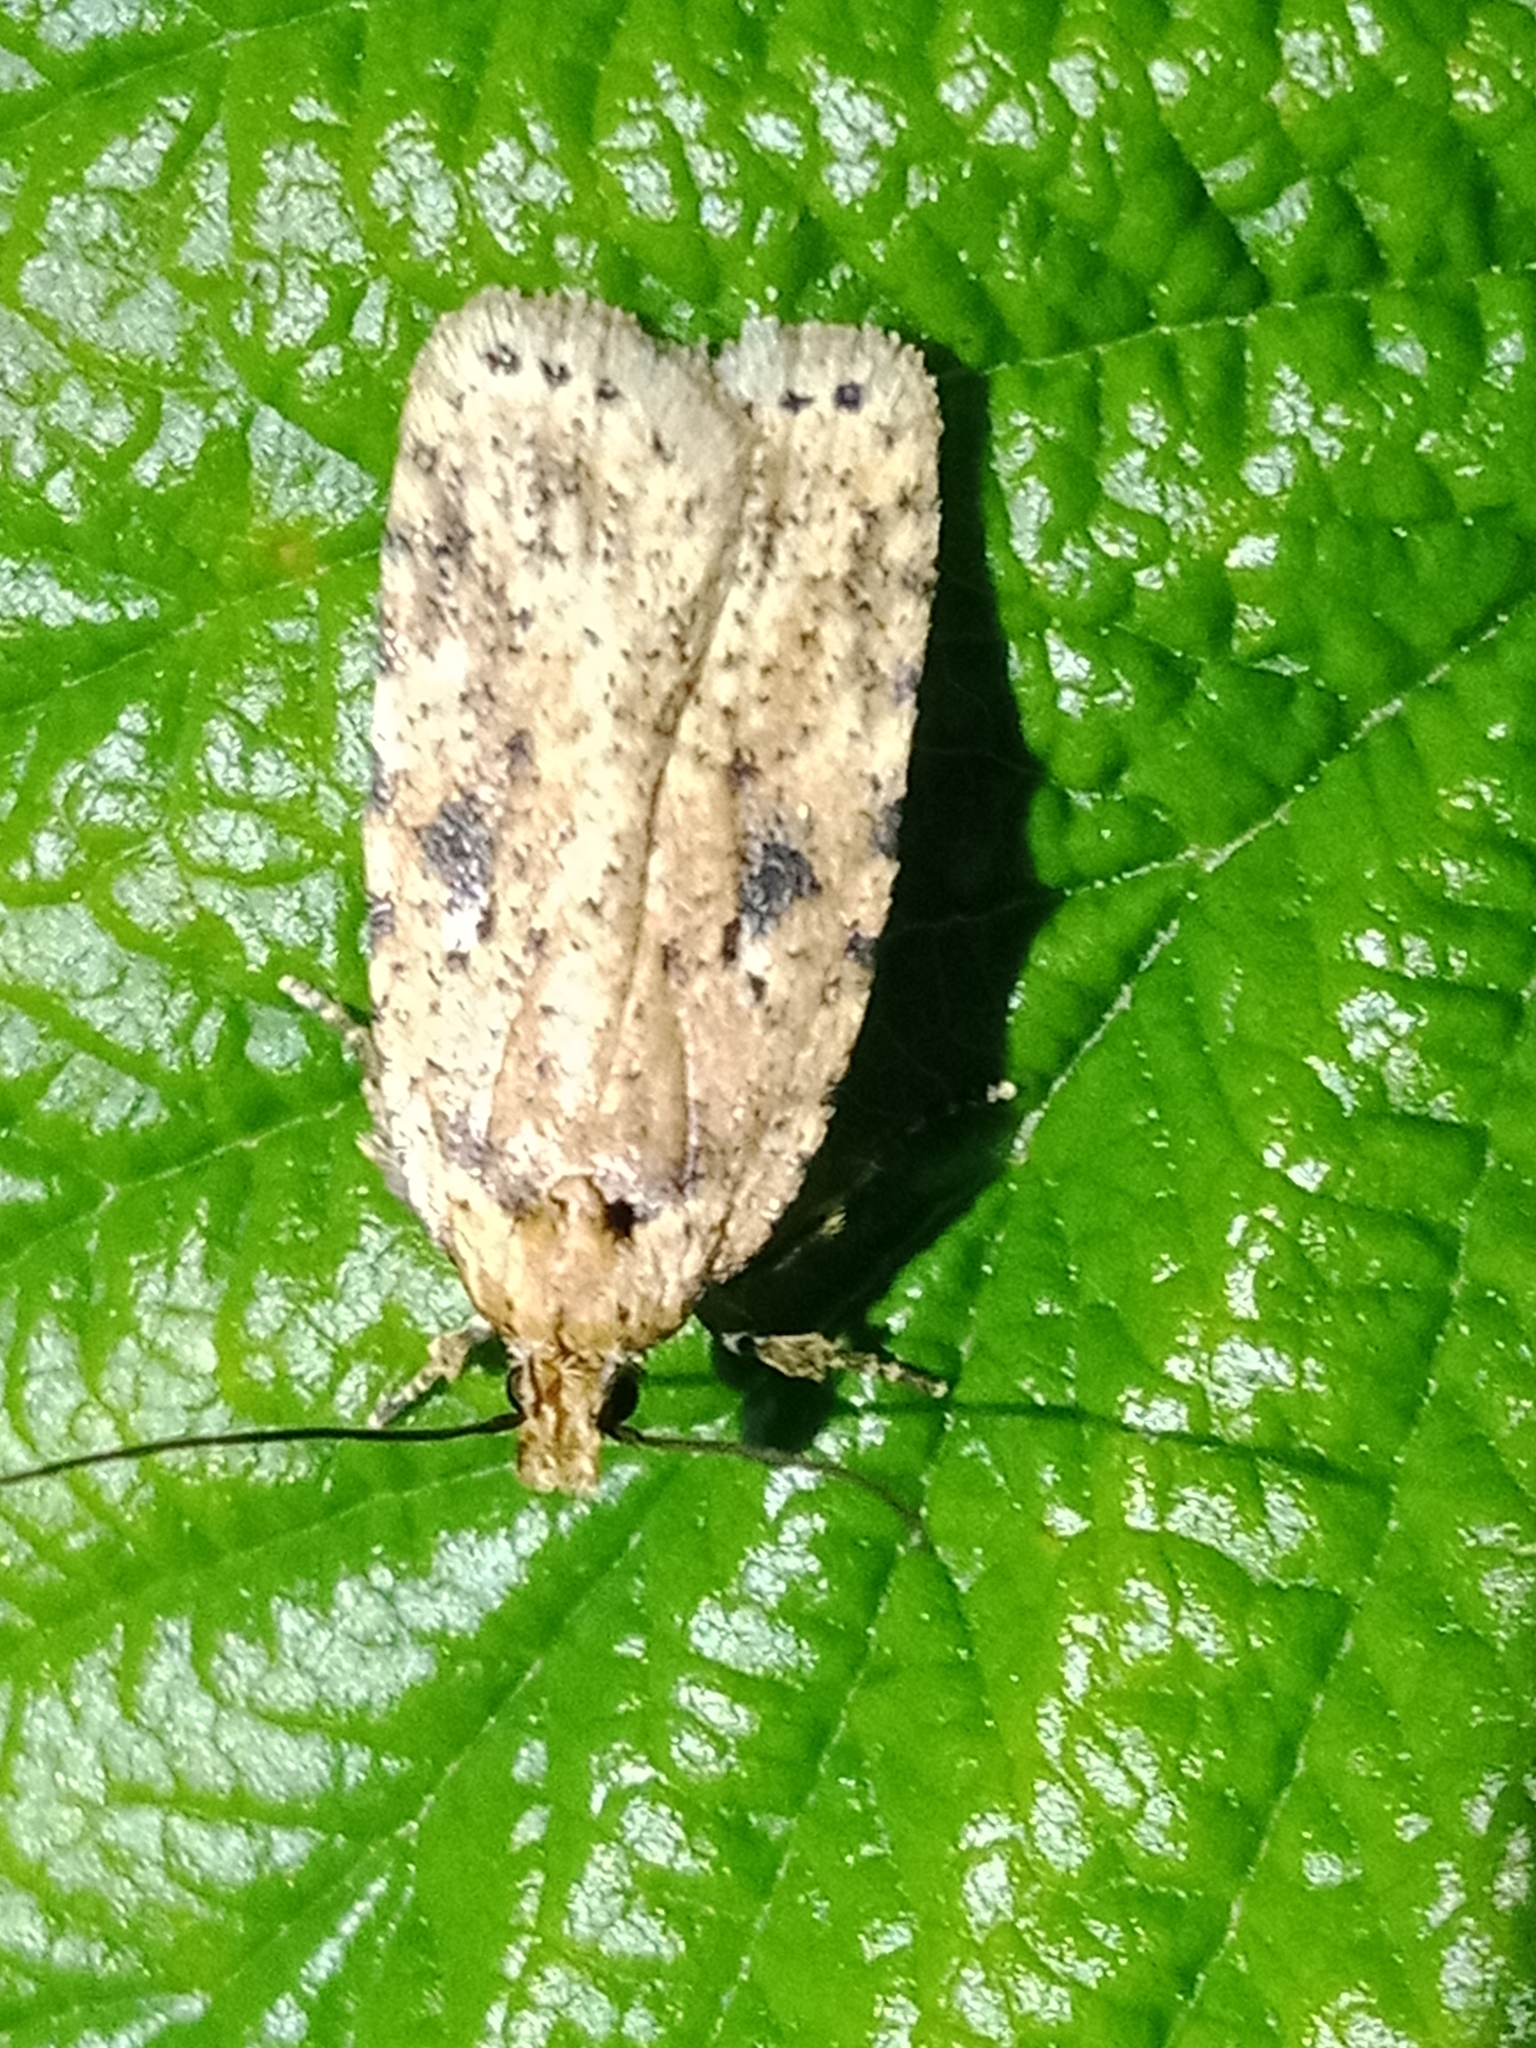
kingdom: Animalia
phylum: Arthropoda
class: Insecta
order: Lepidoptera
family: Depressariidae
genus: Agonopterix
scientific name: Agonopterix arenella
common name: Brindled flat-body
